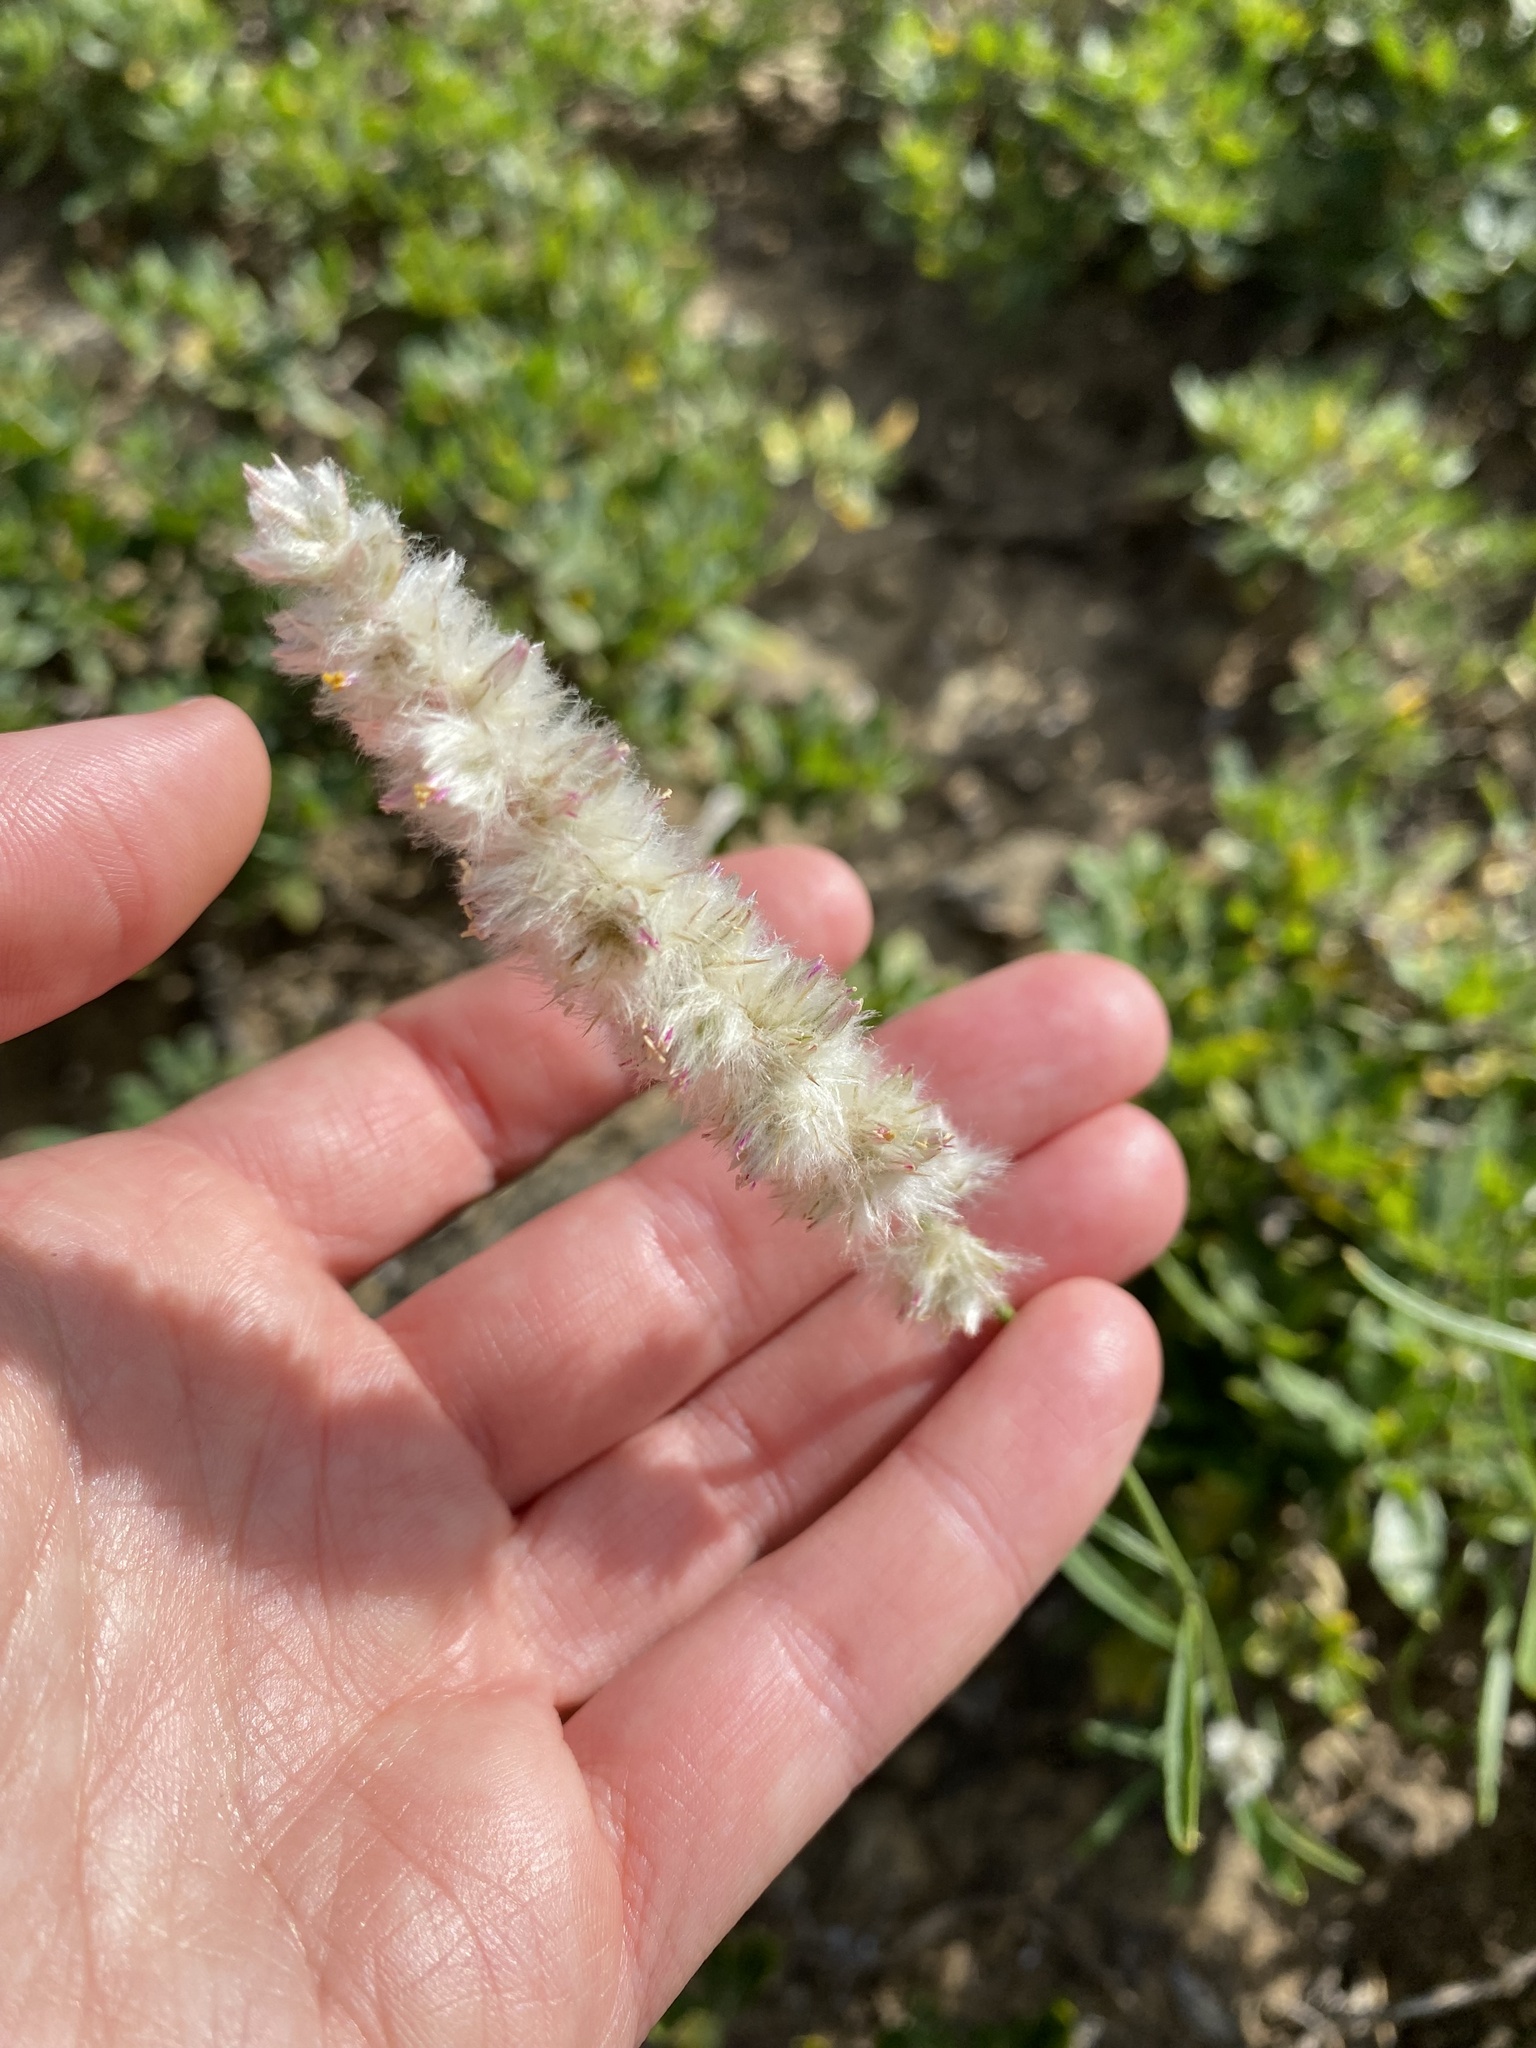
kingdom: Plantae
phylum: Tracheophyta
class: Magnoliopsida
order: Caryophyllales
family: Amaranthaceae
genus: Cyphocarpa
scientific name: Cyphocarpa angustifolia
